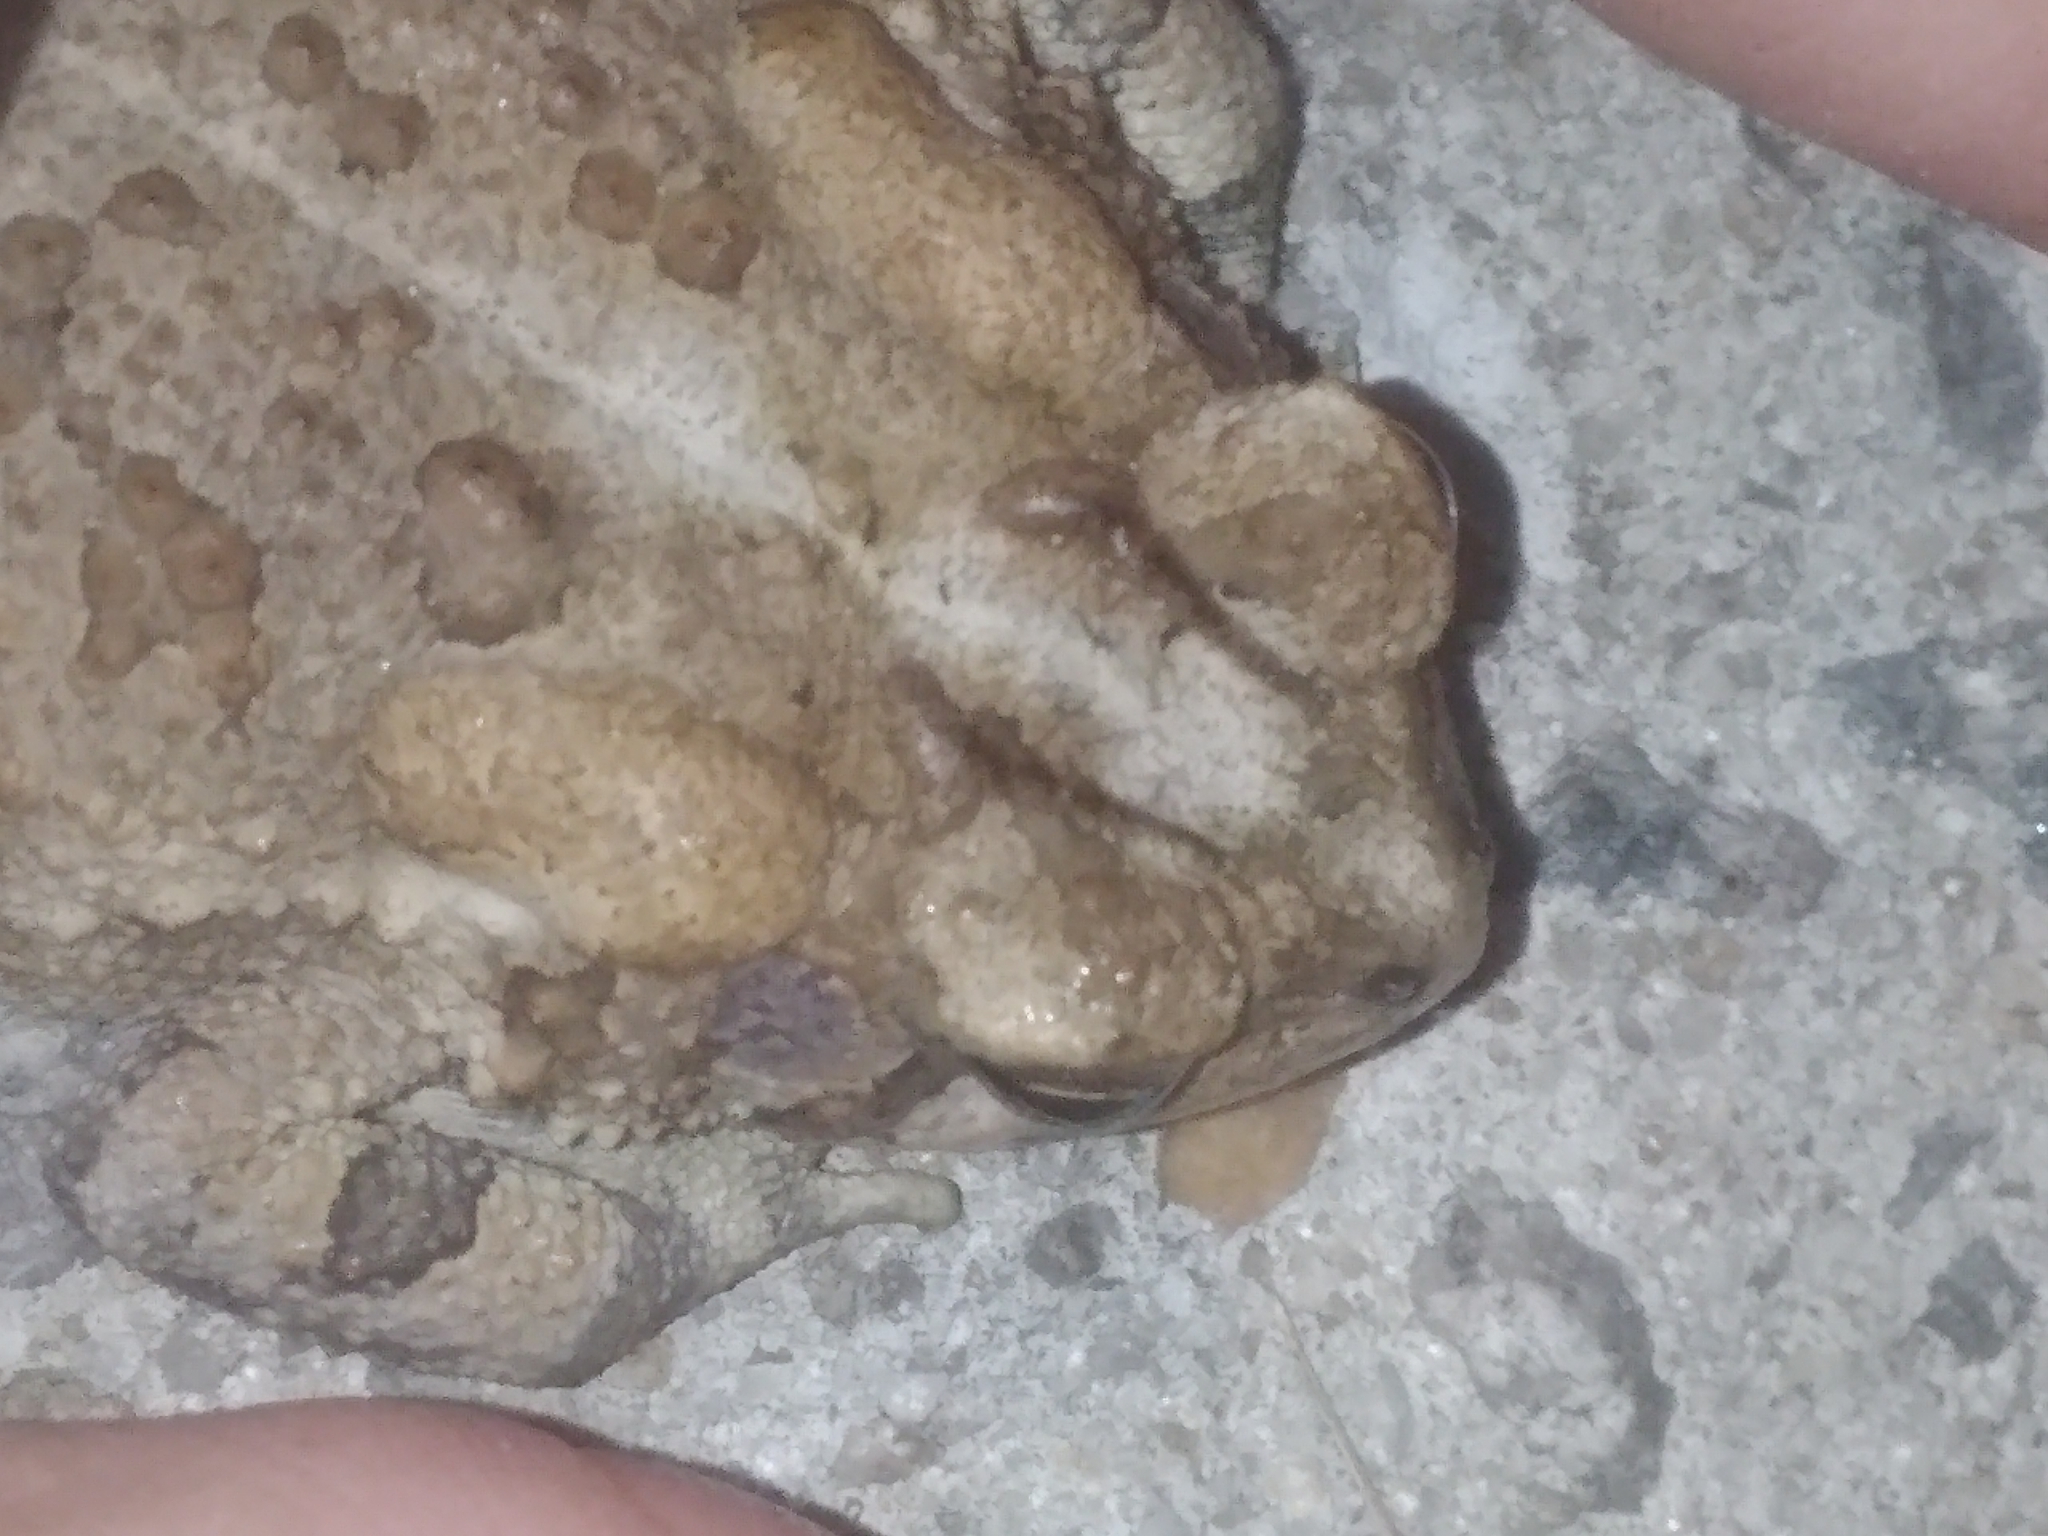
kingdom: Animalia
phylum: Chordata
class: Amphibia
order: Anura
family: Bufonidae
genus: Anaxyrus
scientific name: Anaxyrus terrestris
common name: Southern toad
